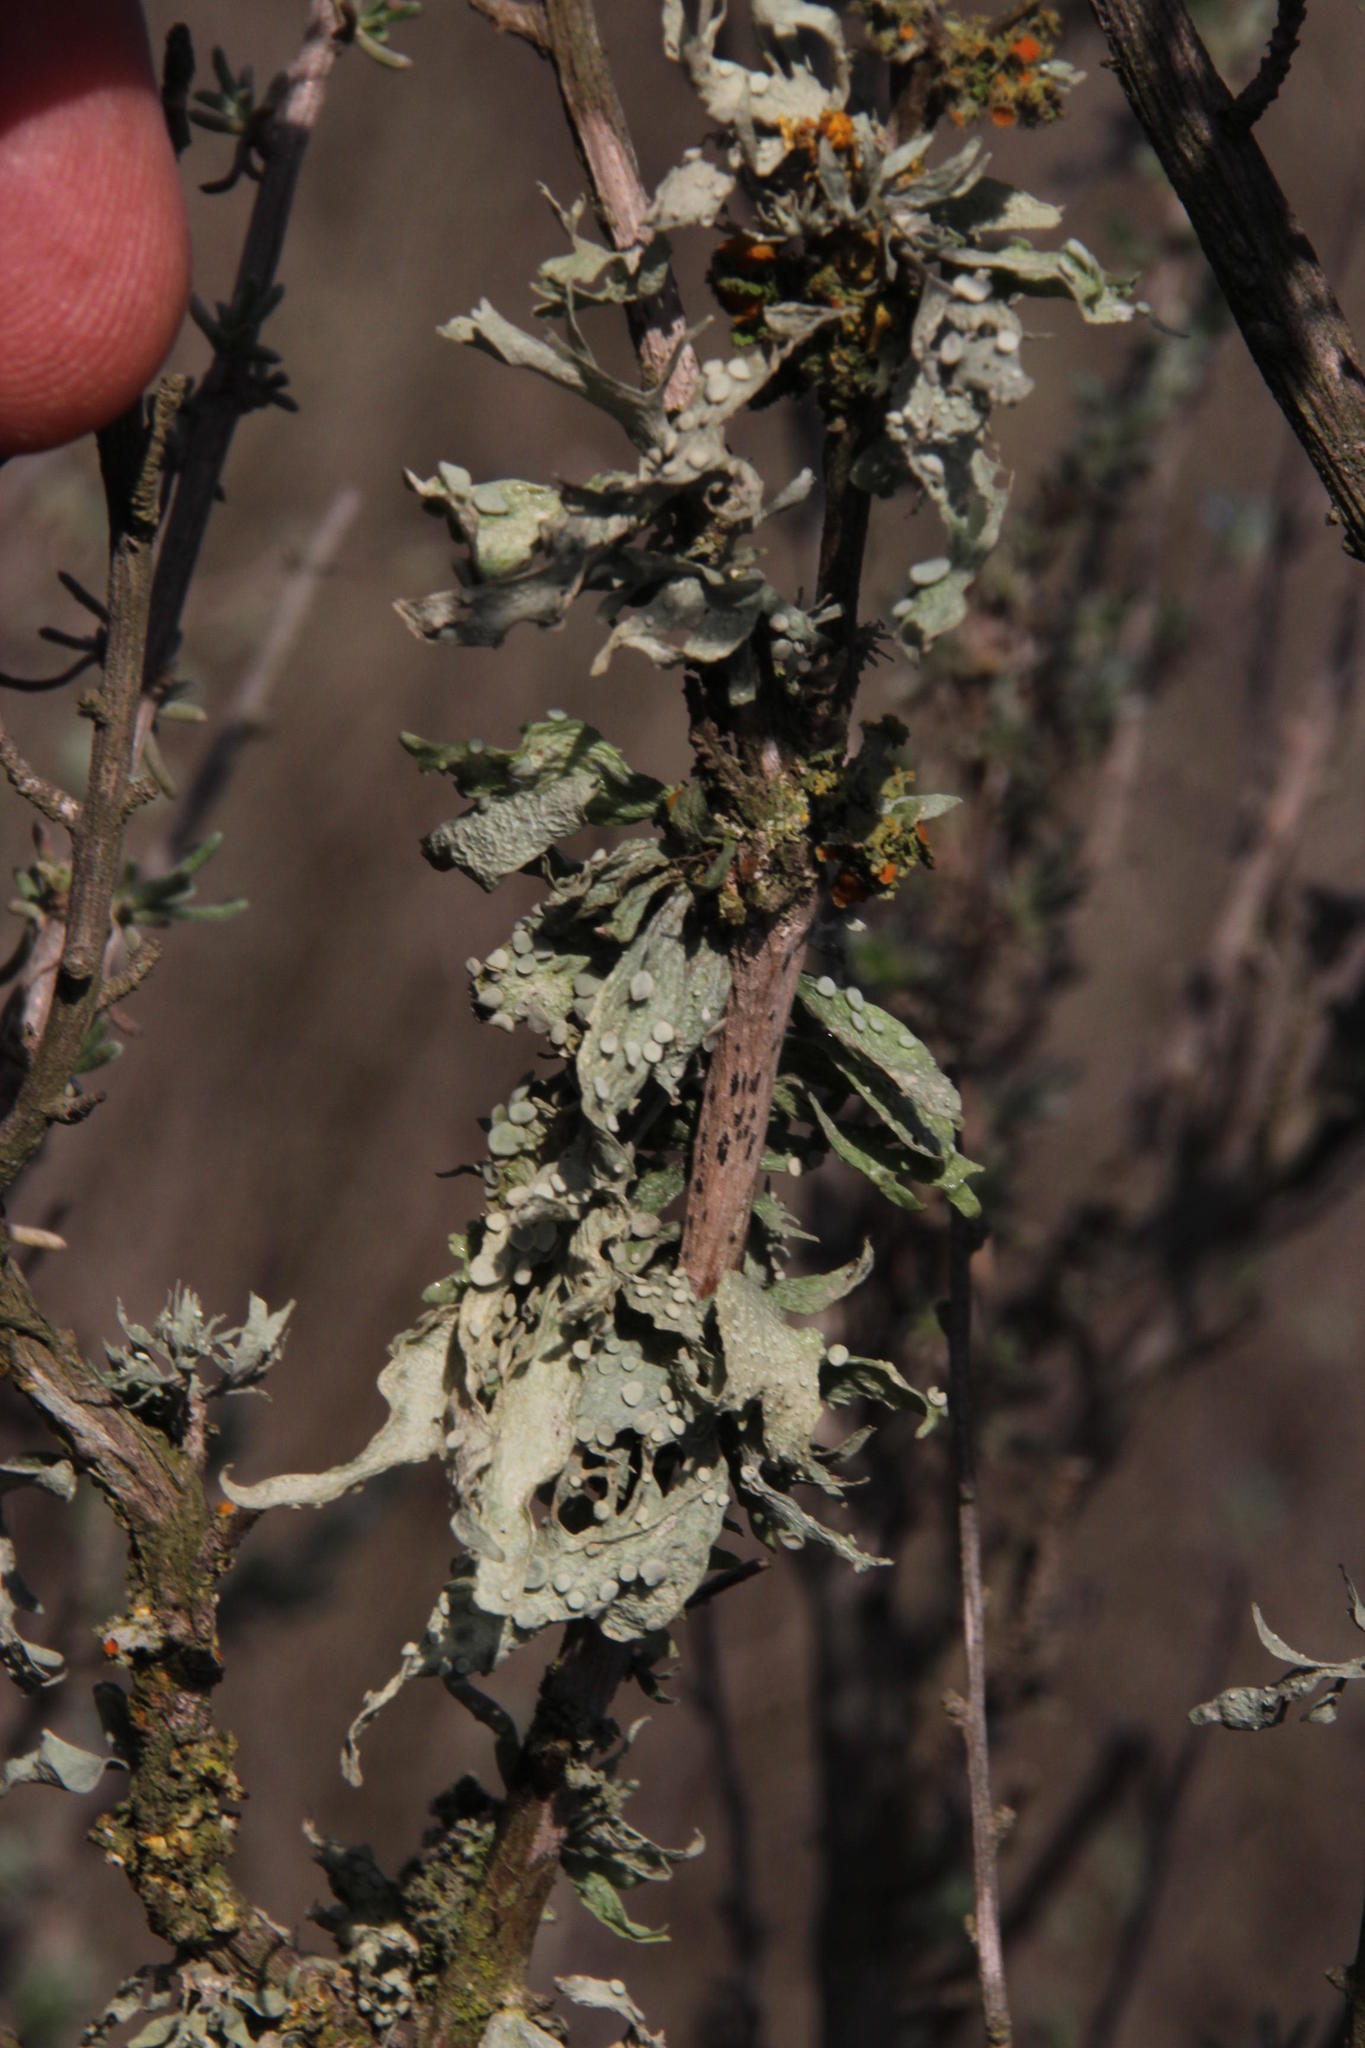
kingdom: Fungi
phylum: Ascomycota
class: Lecanoromycetes
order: Lecanorales
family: Ramalinaceae
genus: Ramalina
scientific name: Ramalina celastri
